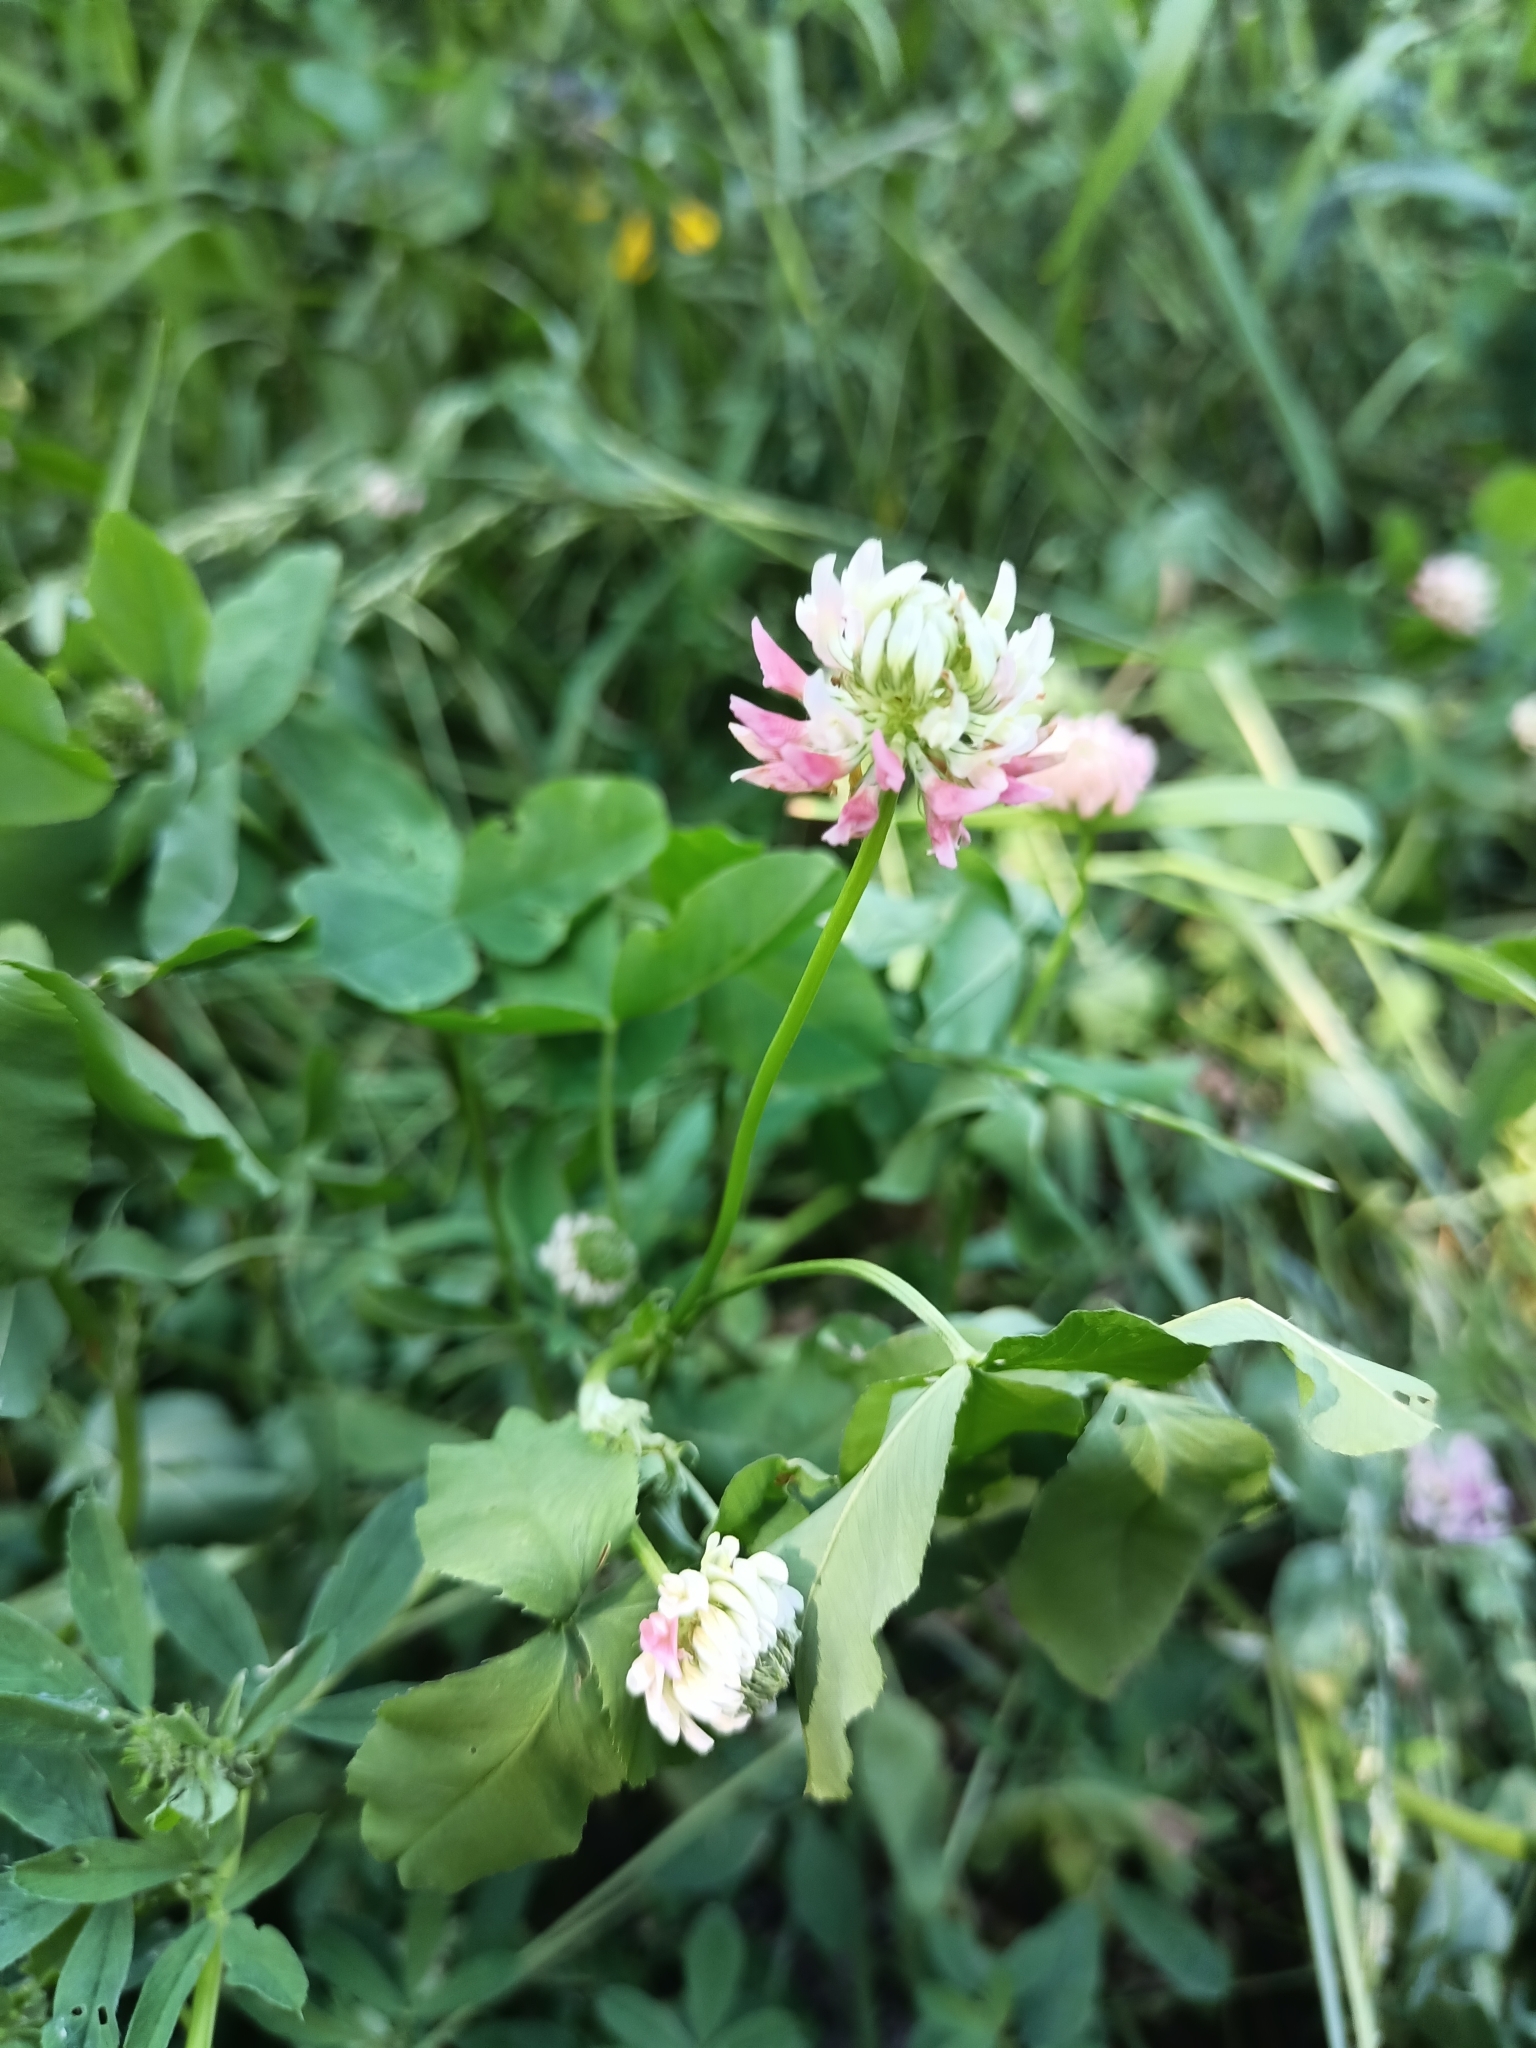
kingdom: Plantae
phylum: Tracheophyta
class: Magnoliopsida
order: Fabales
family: Fabaceae
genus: Trifolium
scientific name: Trifolium hybridum
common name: Alsike clover
